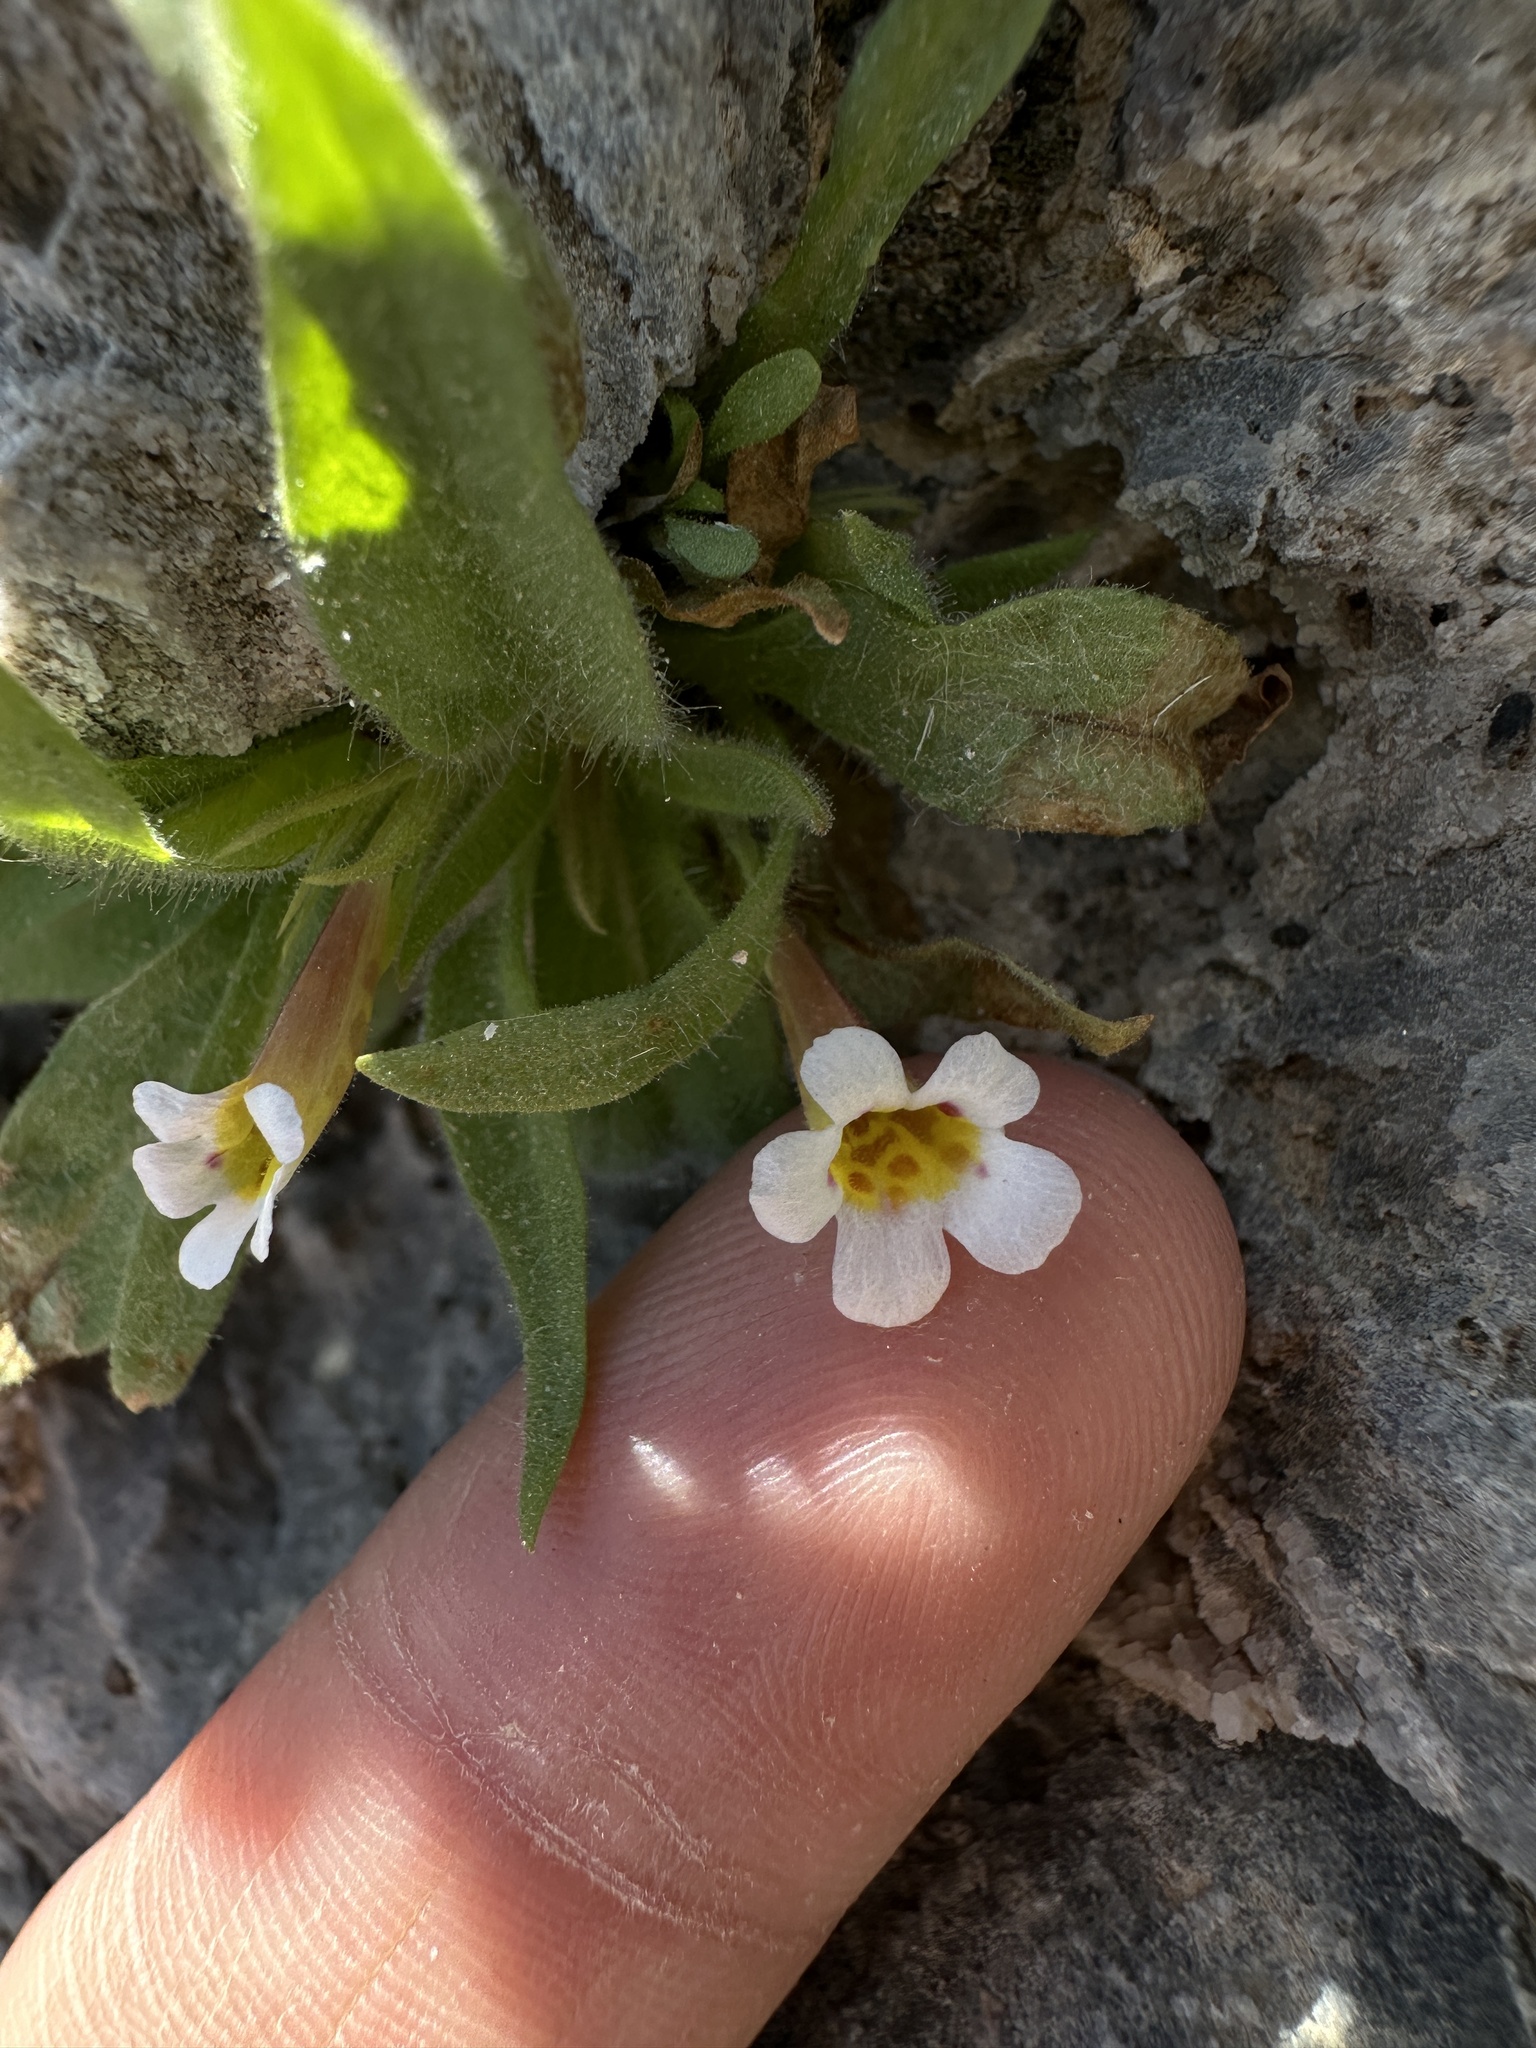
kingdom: Plantae
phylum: Tracheophyta
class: Magnoliopsida
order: Lamiales
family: Phrymaceae
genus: Diplacus
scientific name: Diplacus rupicola
